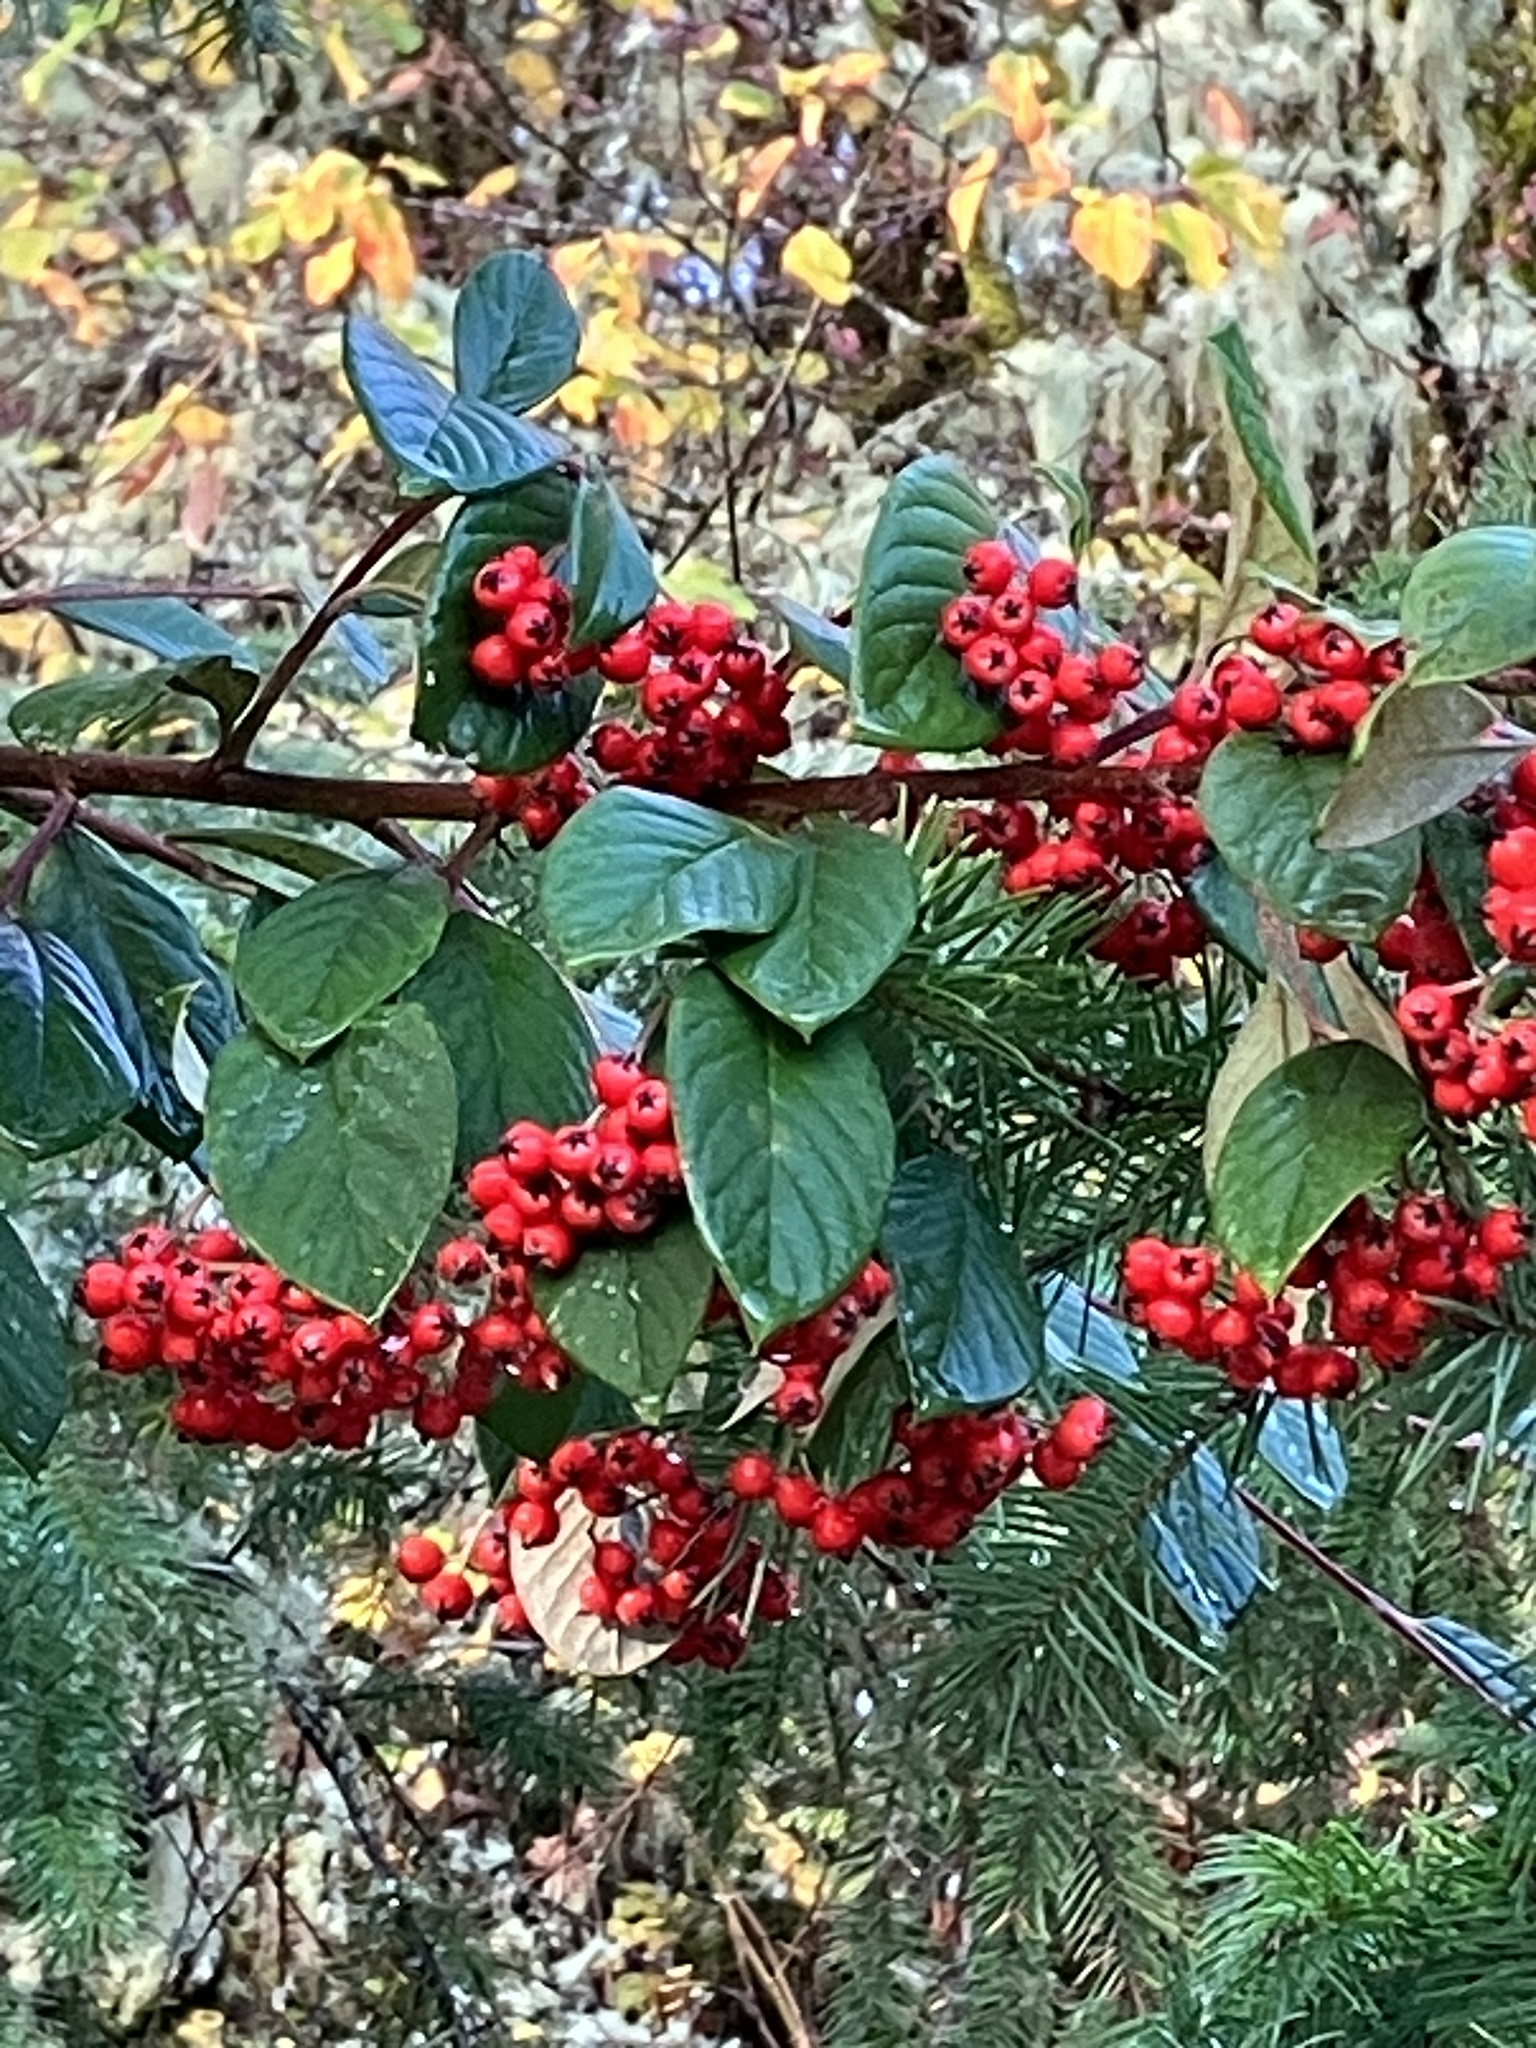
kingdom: Plantae
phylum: Tracheophyta
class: Magnoliopsida
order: Rosales
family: Rosaceae
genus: Cotoneaster
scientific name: Cotoneaster coriaceus
